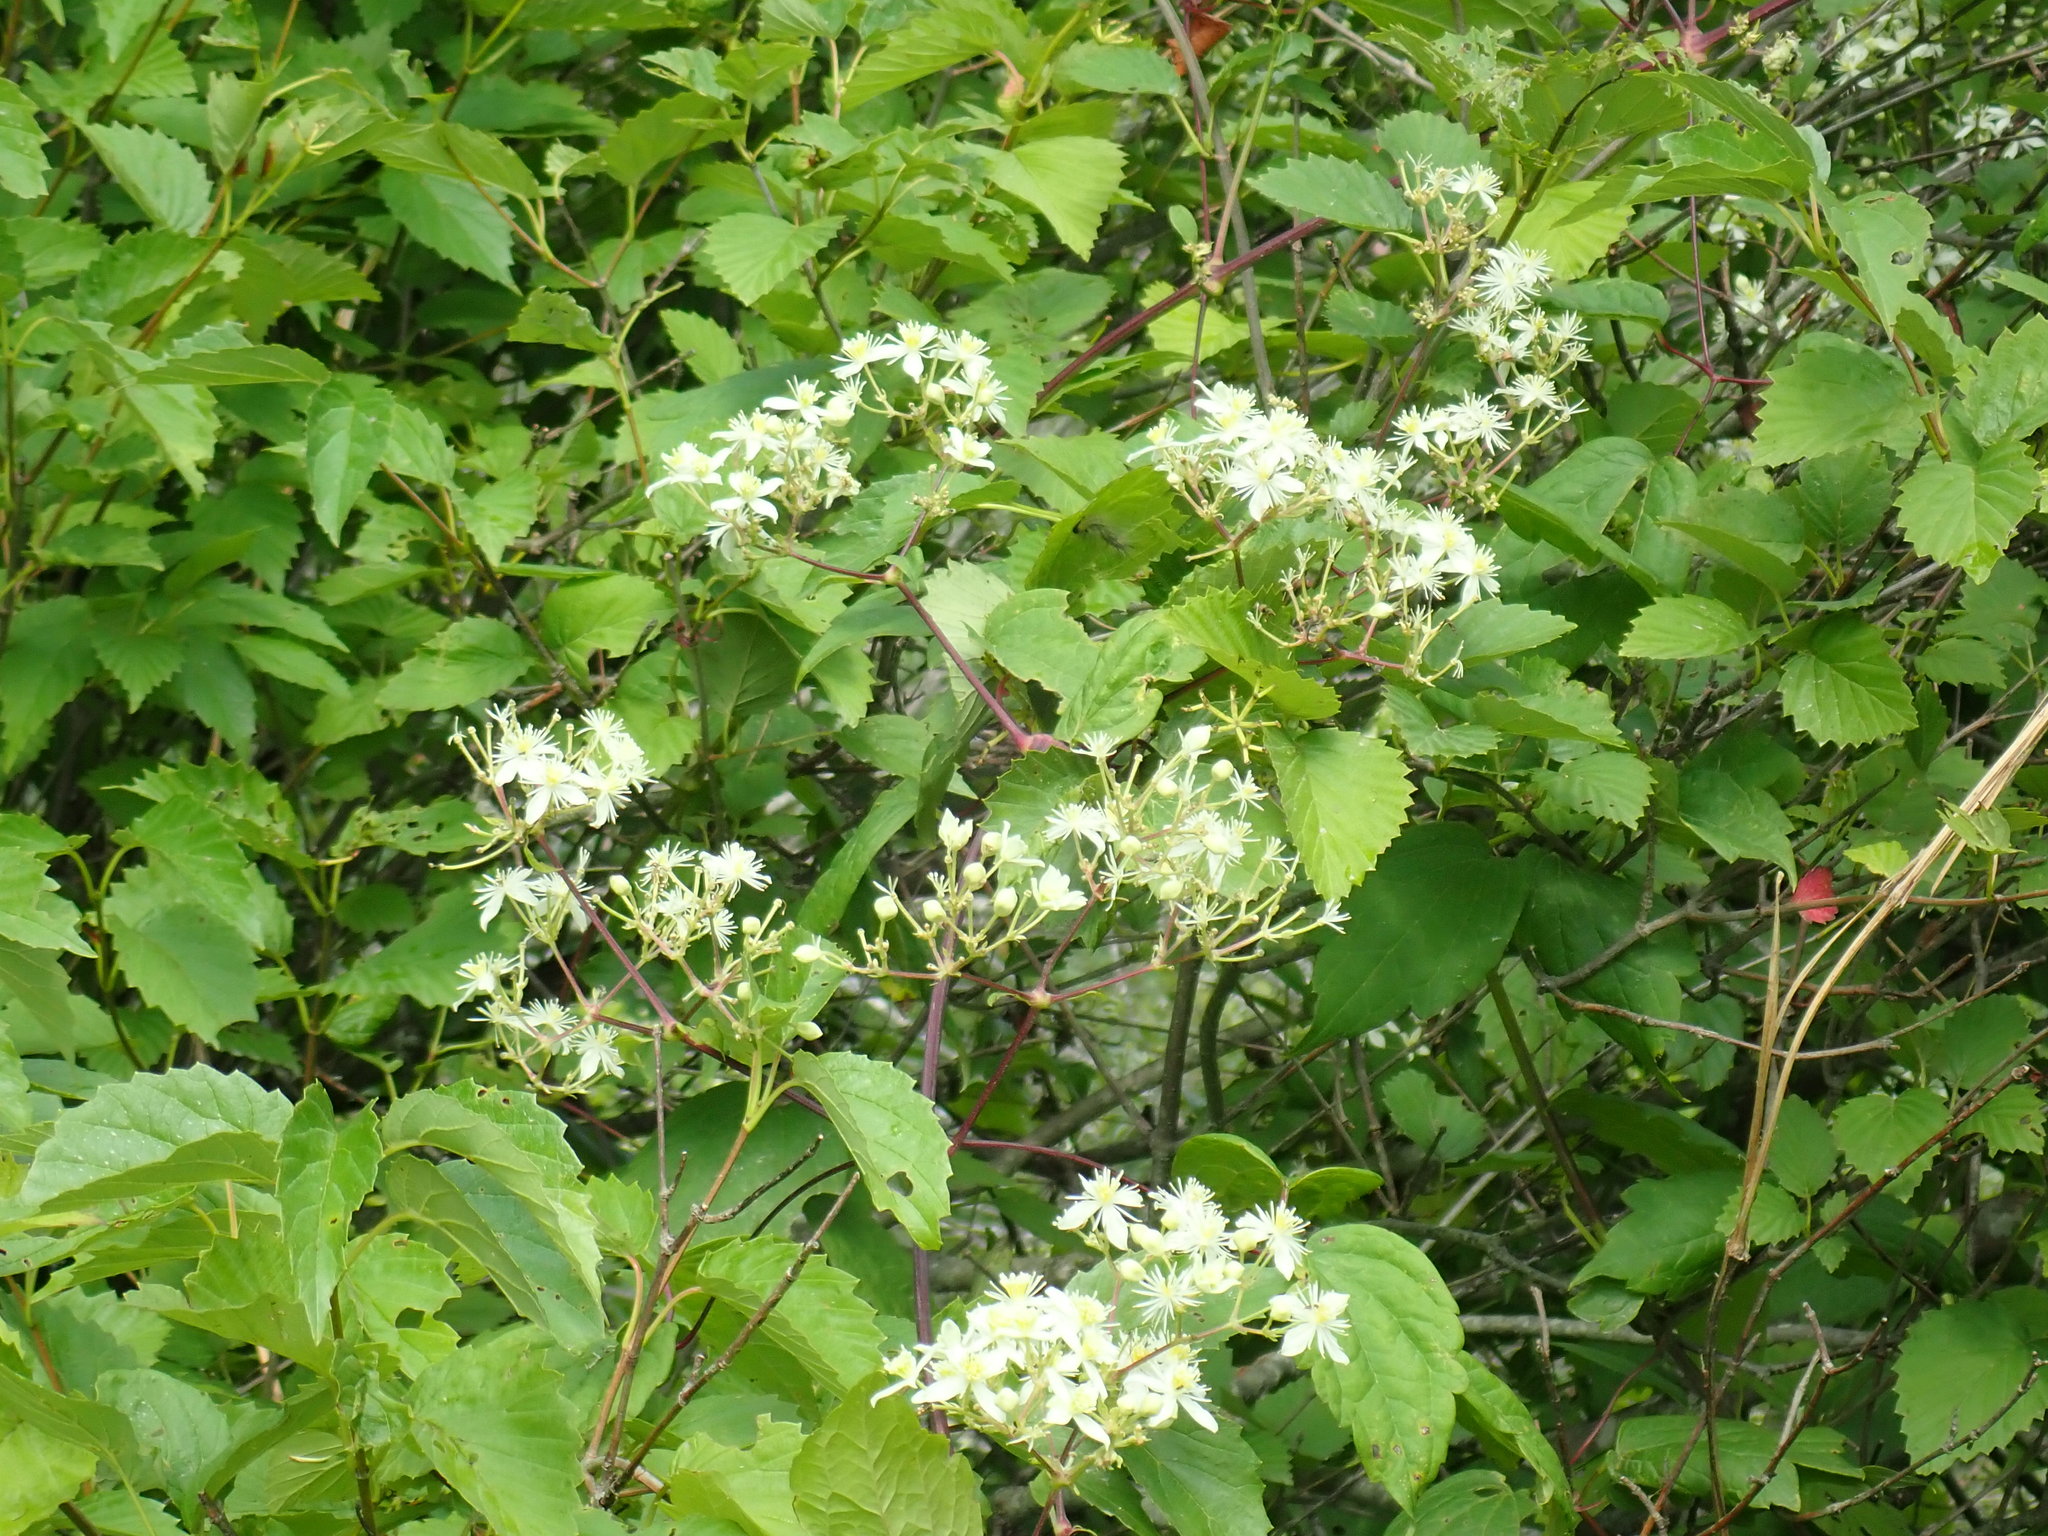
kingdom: Plantae
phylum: Tracheophyta
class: Magnoliopsida
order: Ranunculales
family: Ranunculaceae
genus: Clematis
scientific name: Clematis virginiana
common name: Virgin's-bower
